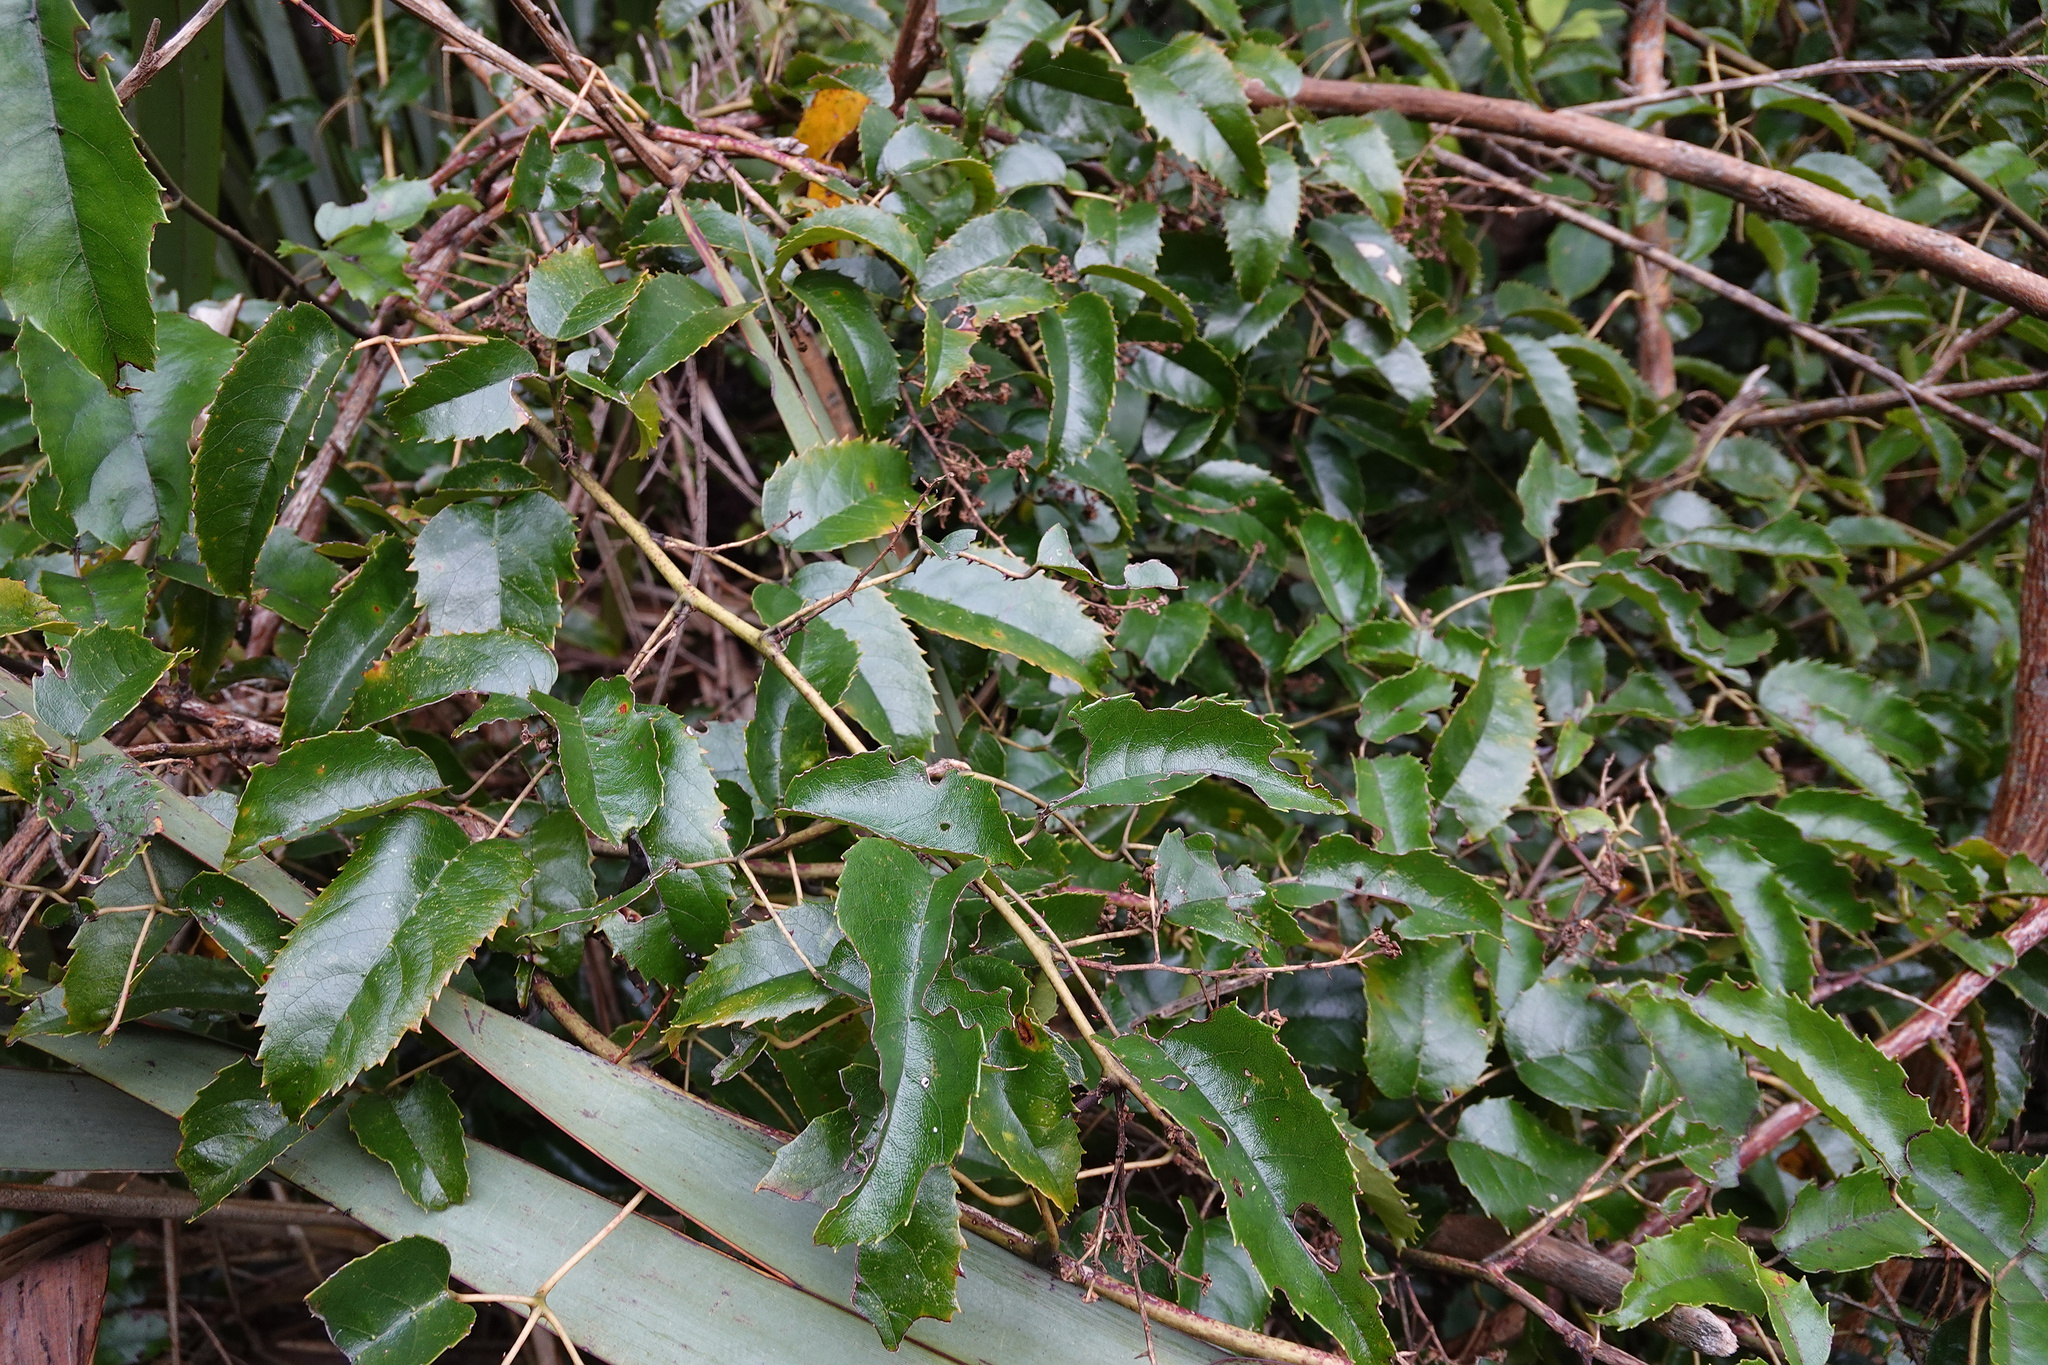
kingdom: Plantae
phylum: Tracheophyta
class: Magnoliopsida
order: Rosales
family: Rosaceae
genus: Rubus
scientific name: Rubus cissoides
